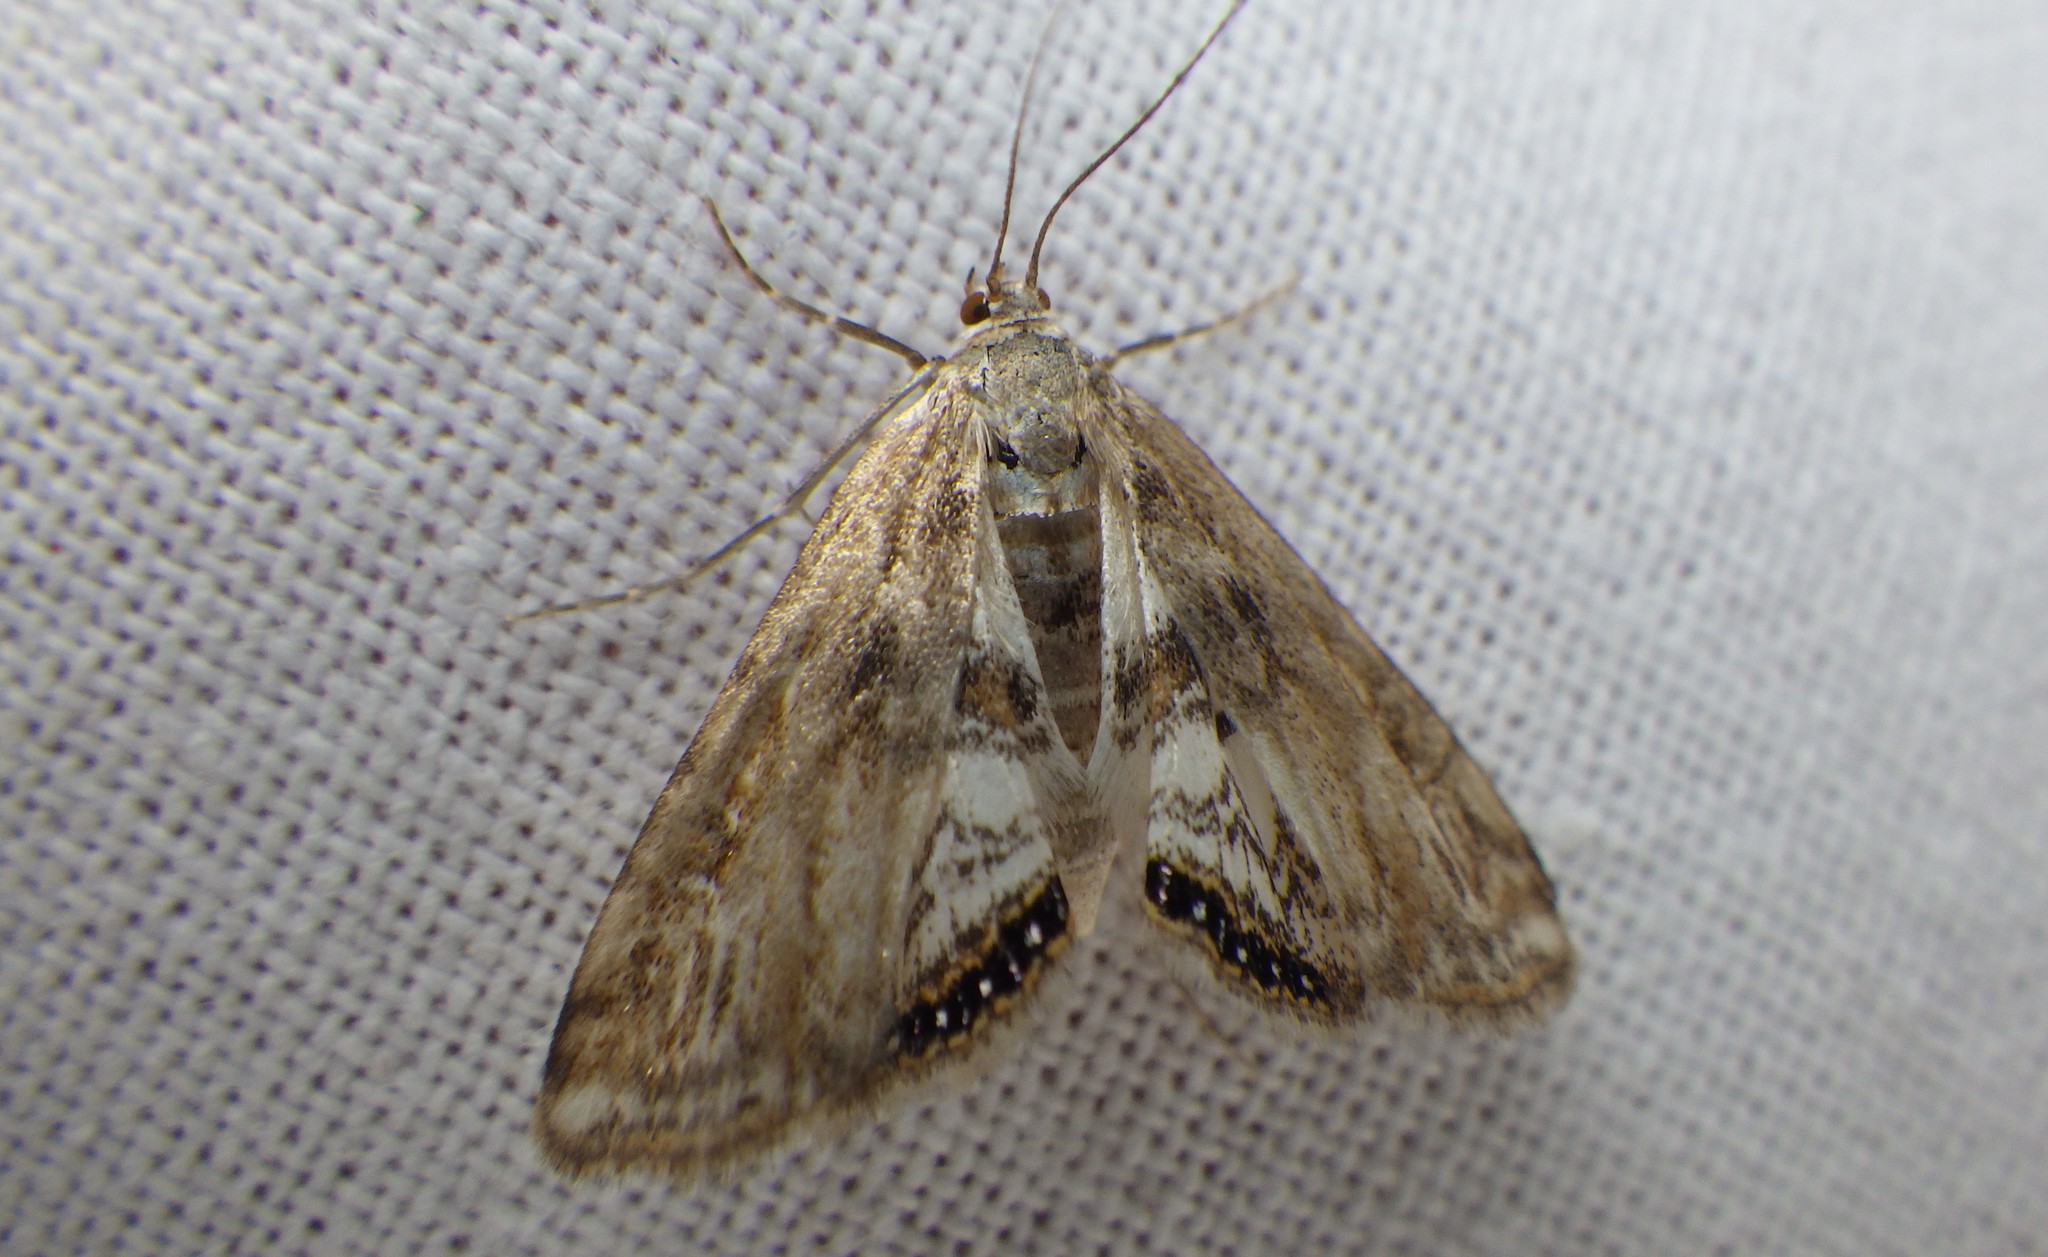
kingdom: Animalia
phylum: Arthropoda
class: Insecta
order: Lepidoptera
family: Crambidae
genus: Cataclysta
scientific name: Cataclysta lemnata
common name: Small china-mark
